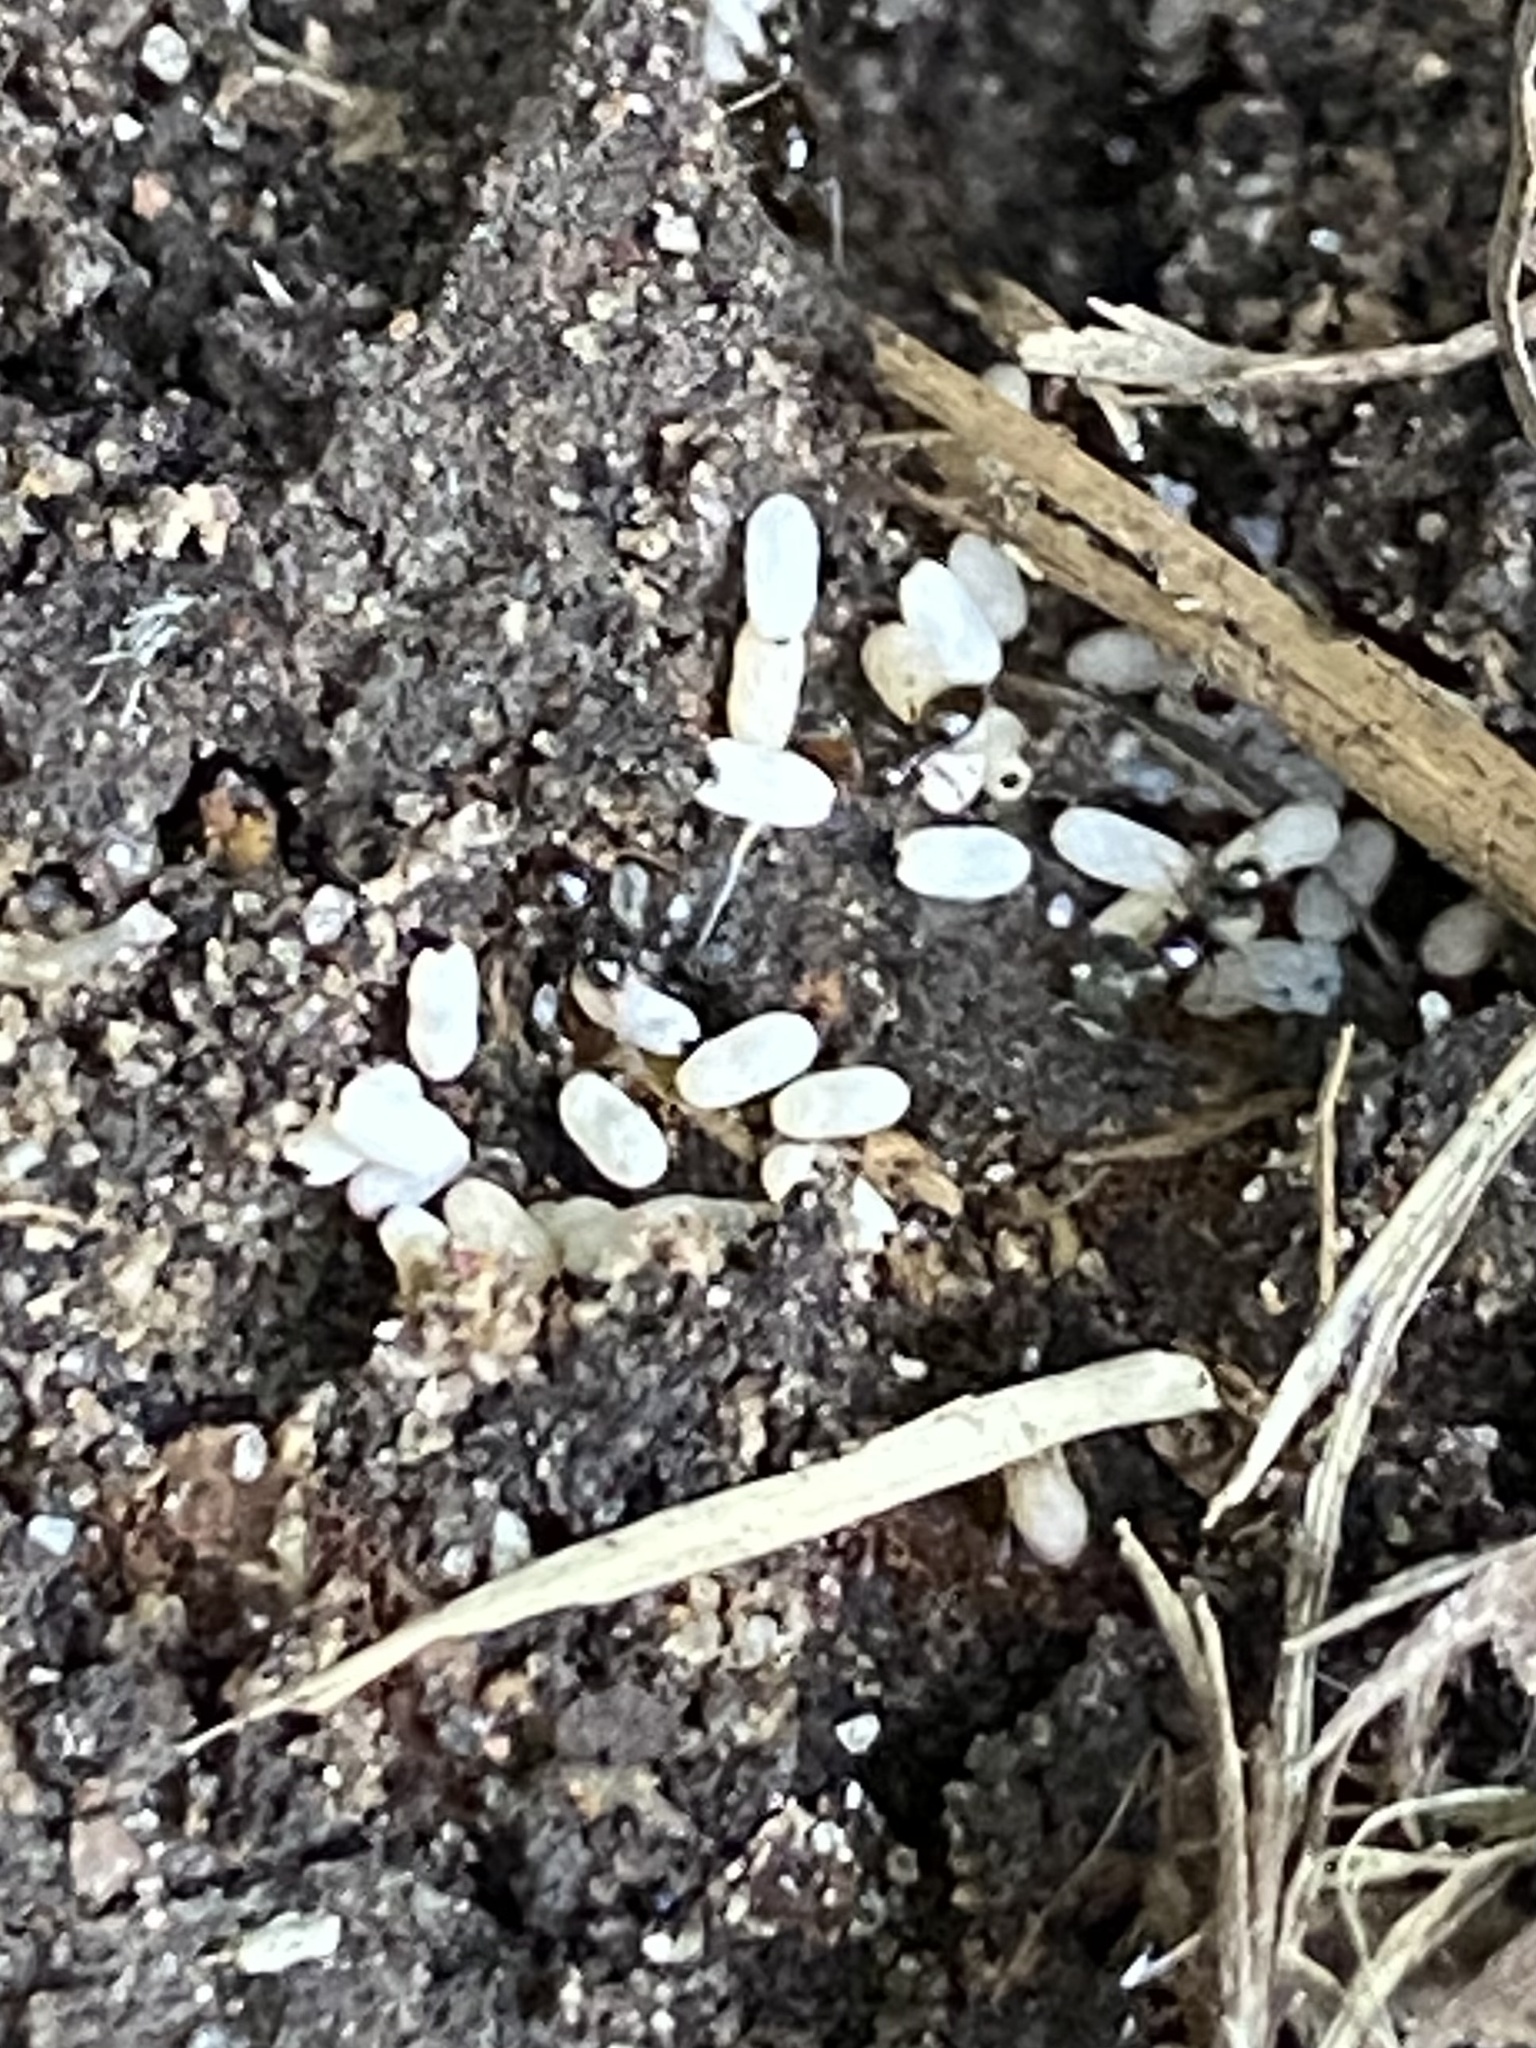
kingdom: Animalia
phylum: Arthropoda
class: Insecta
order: Hymenoptera
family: Formicidae
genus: Brachymyrmex
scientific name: Brachymyrmex patagonicus
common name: Dark rover ant
